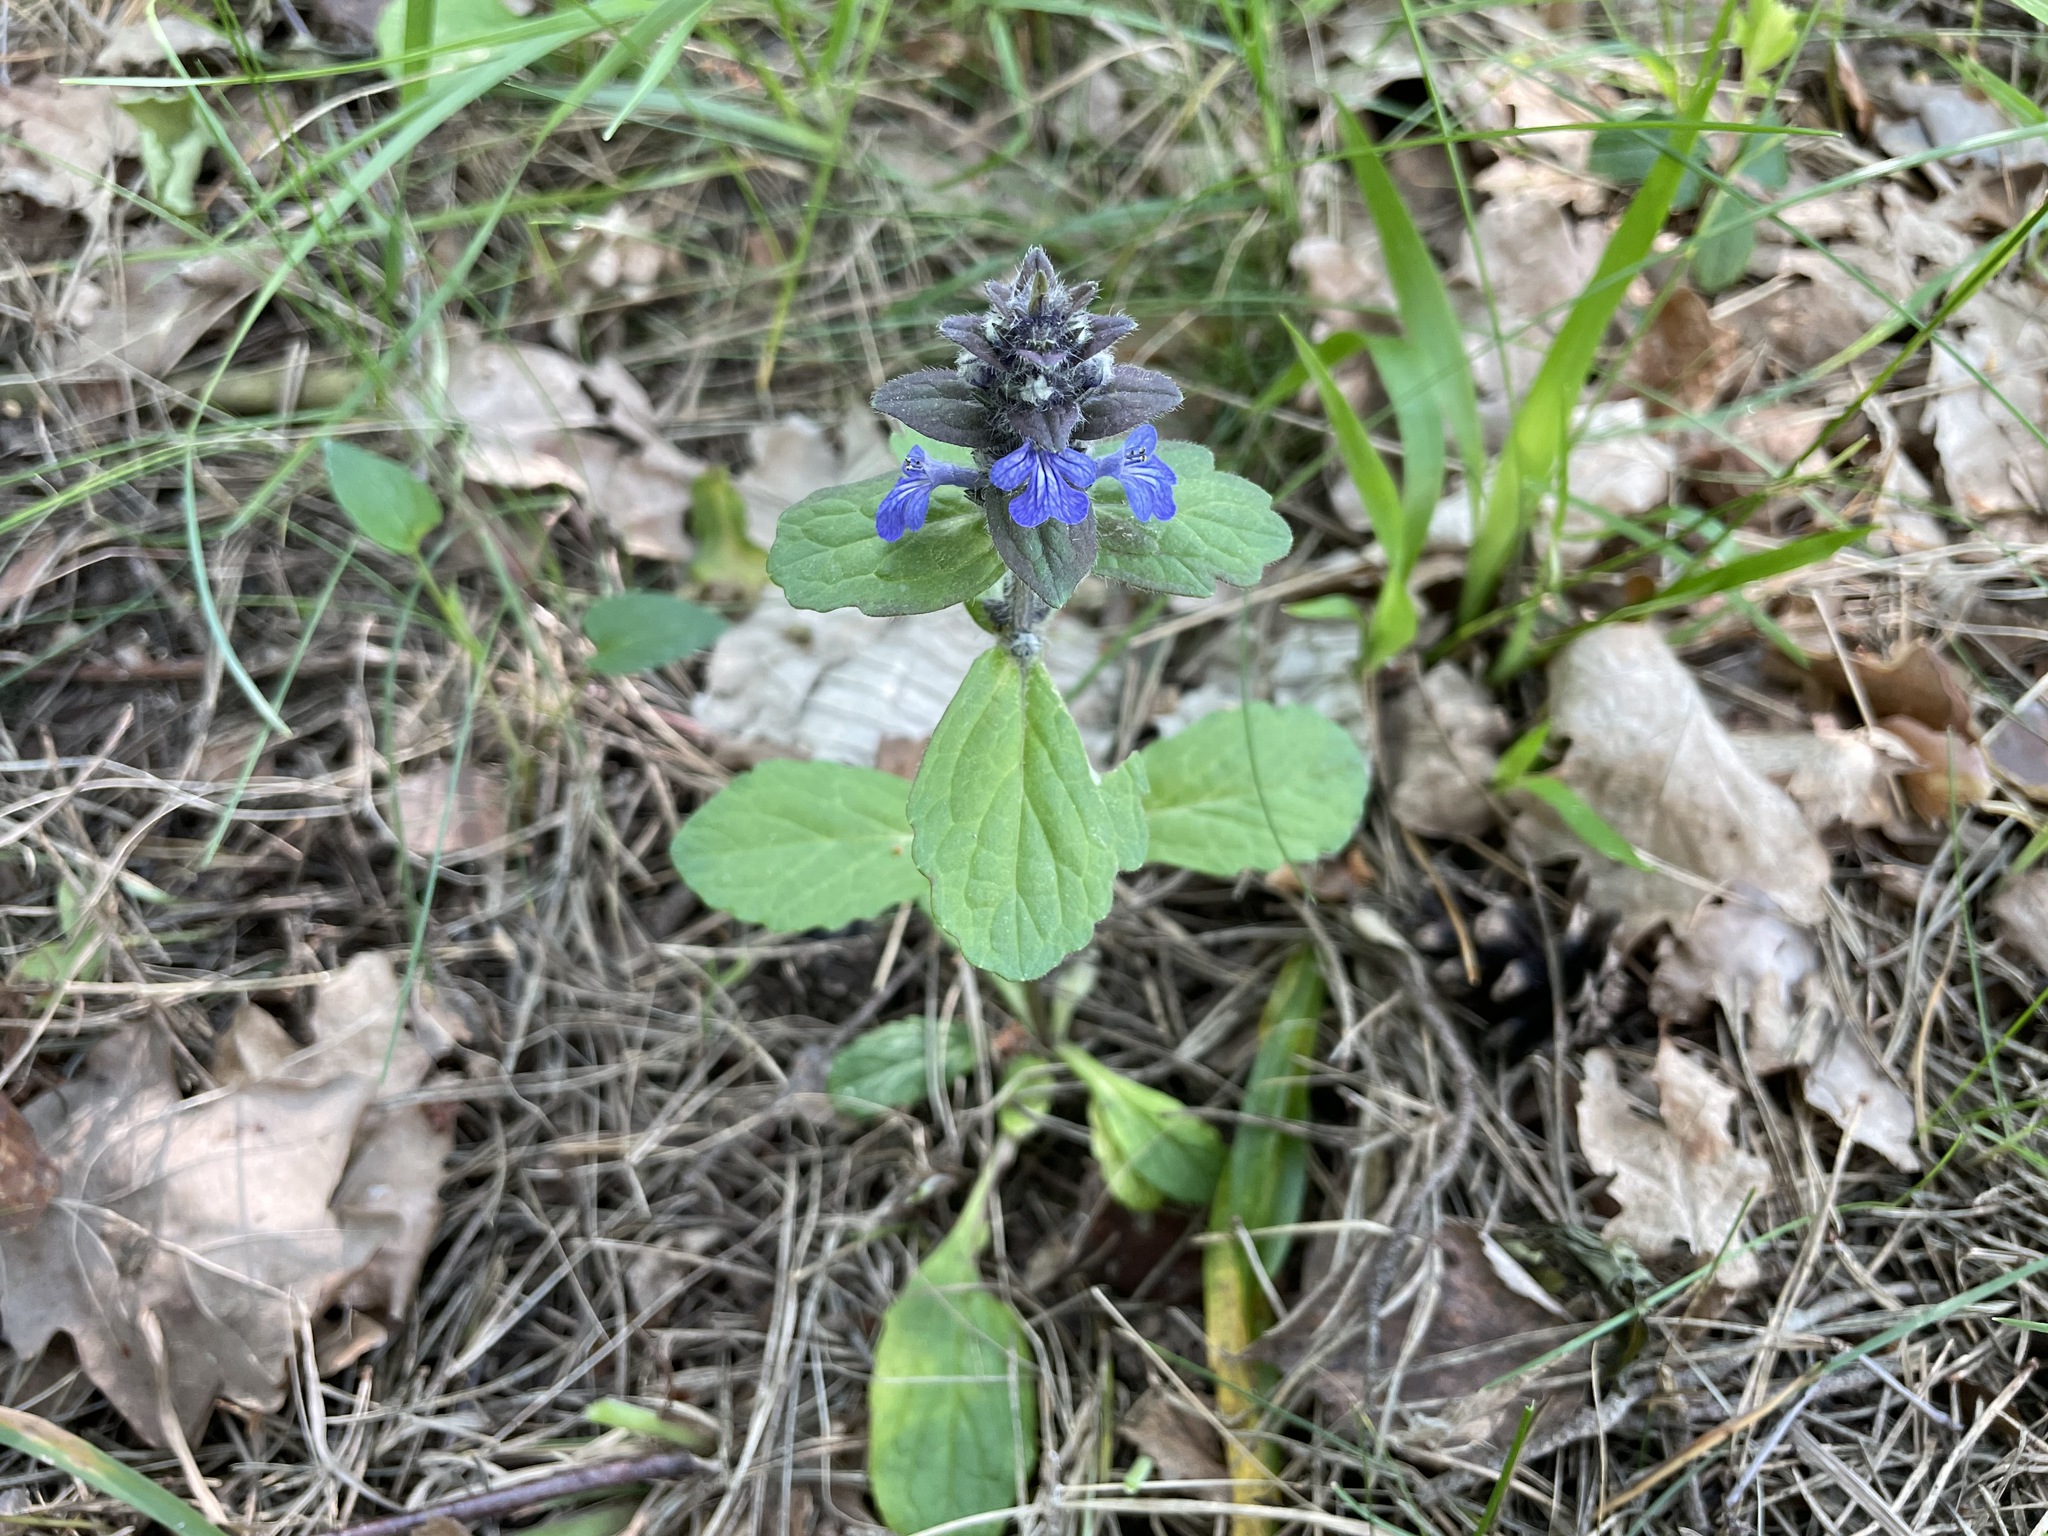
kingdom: Plantae
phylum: Tracheophyta
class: Magnoliopsida
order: Lamiales
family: Lamiaceae
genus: Ajuga
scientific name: Ajuga reptans
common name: Bugle
